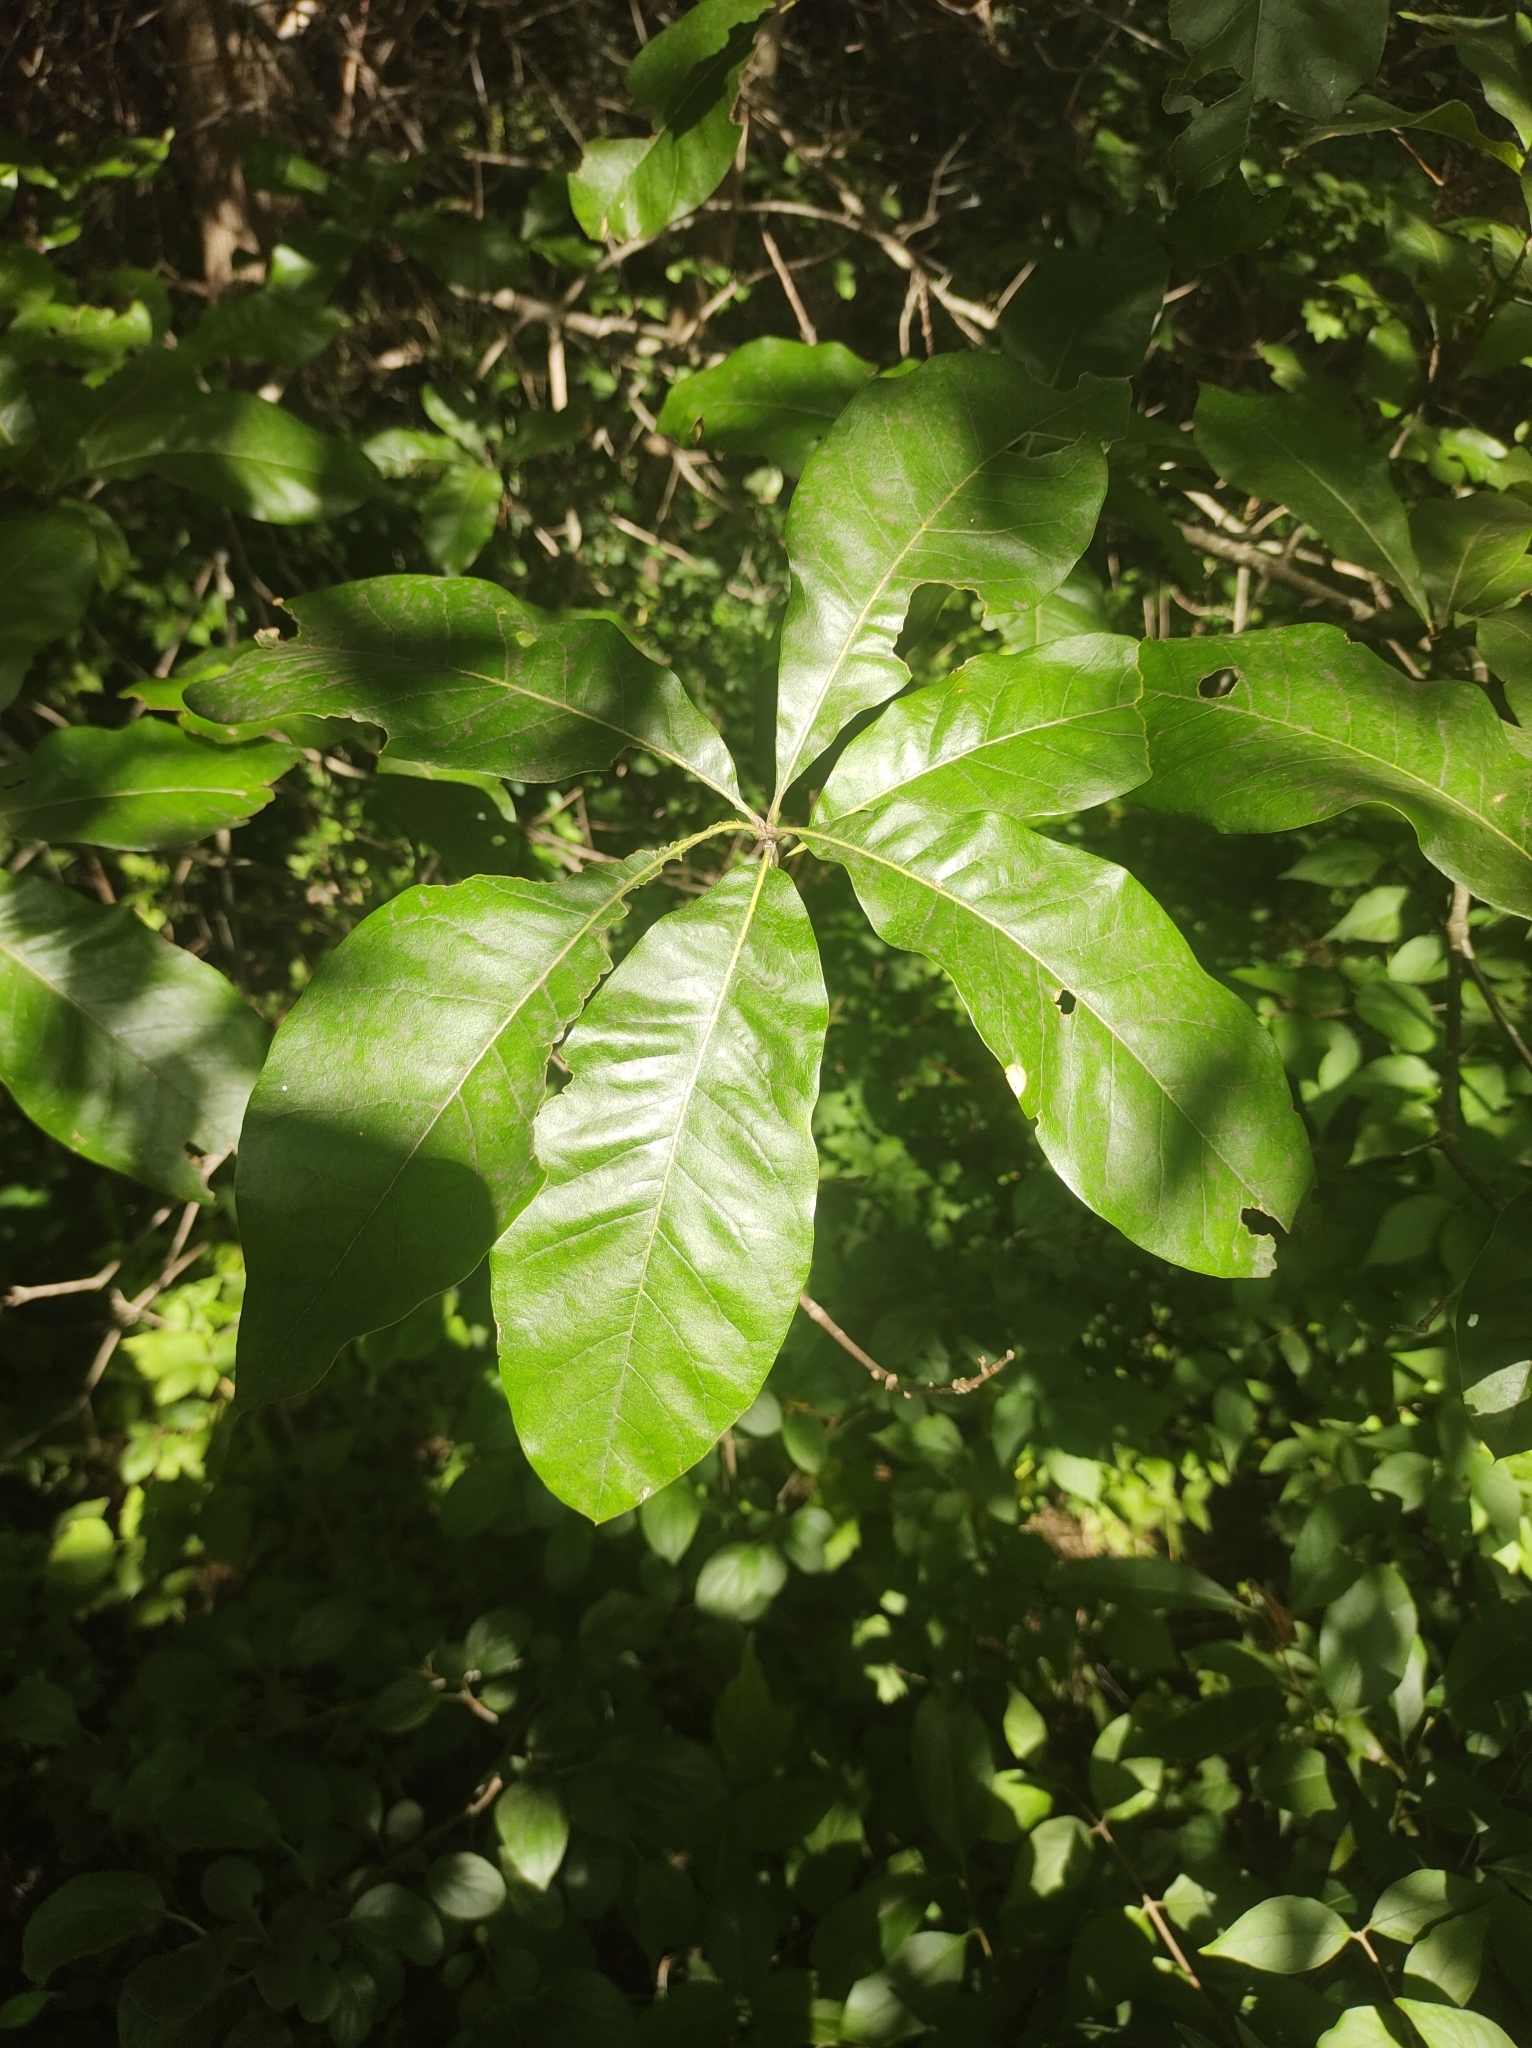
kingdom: Plantae
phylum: Tracheophyta
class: Magnoliopsida
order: Fagales
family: Fagaceae
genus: Quercus
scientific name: Quercus imbricaria
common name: Shingle oak
